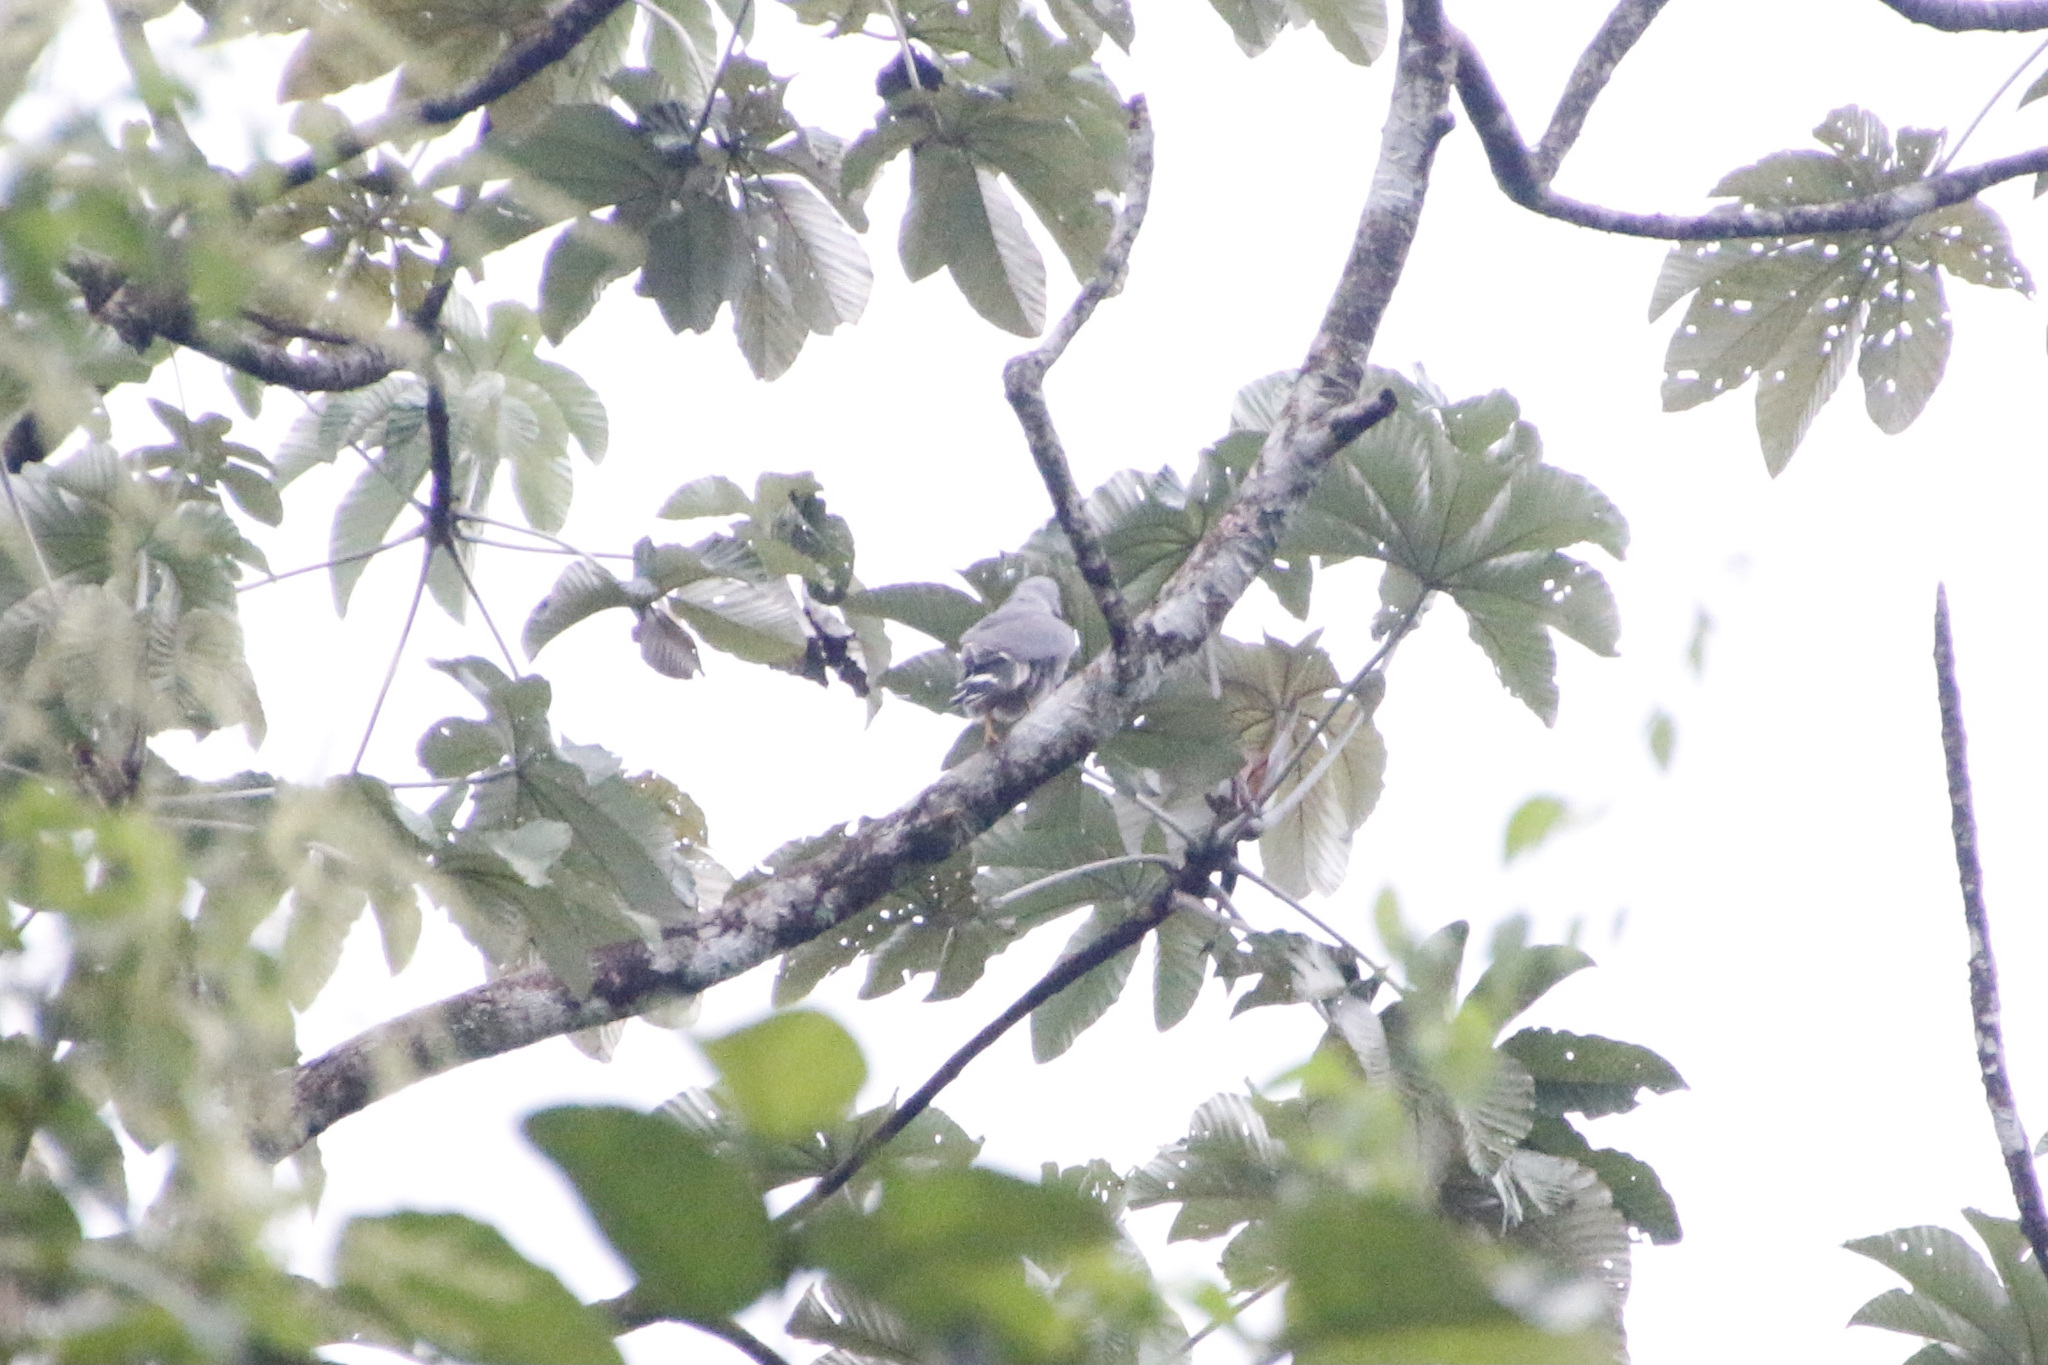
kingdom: Animalia
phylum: Chordata
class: Aves
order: Accipitriformes
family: Accipitridae
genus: Buteo
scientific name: Buteo nitidus
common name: Grey-lined hawk
